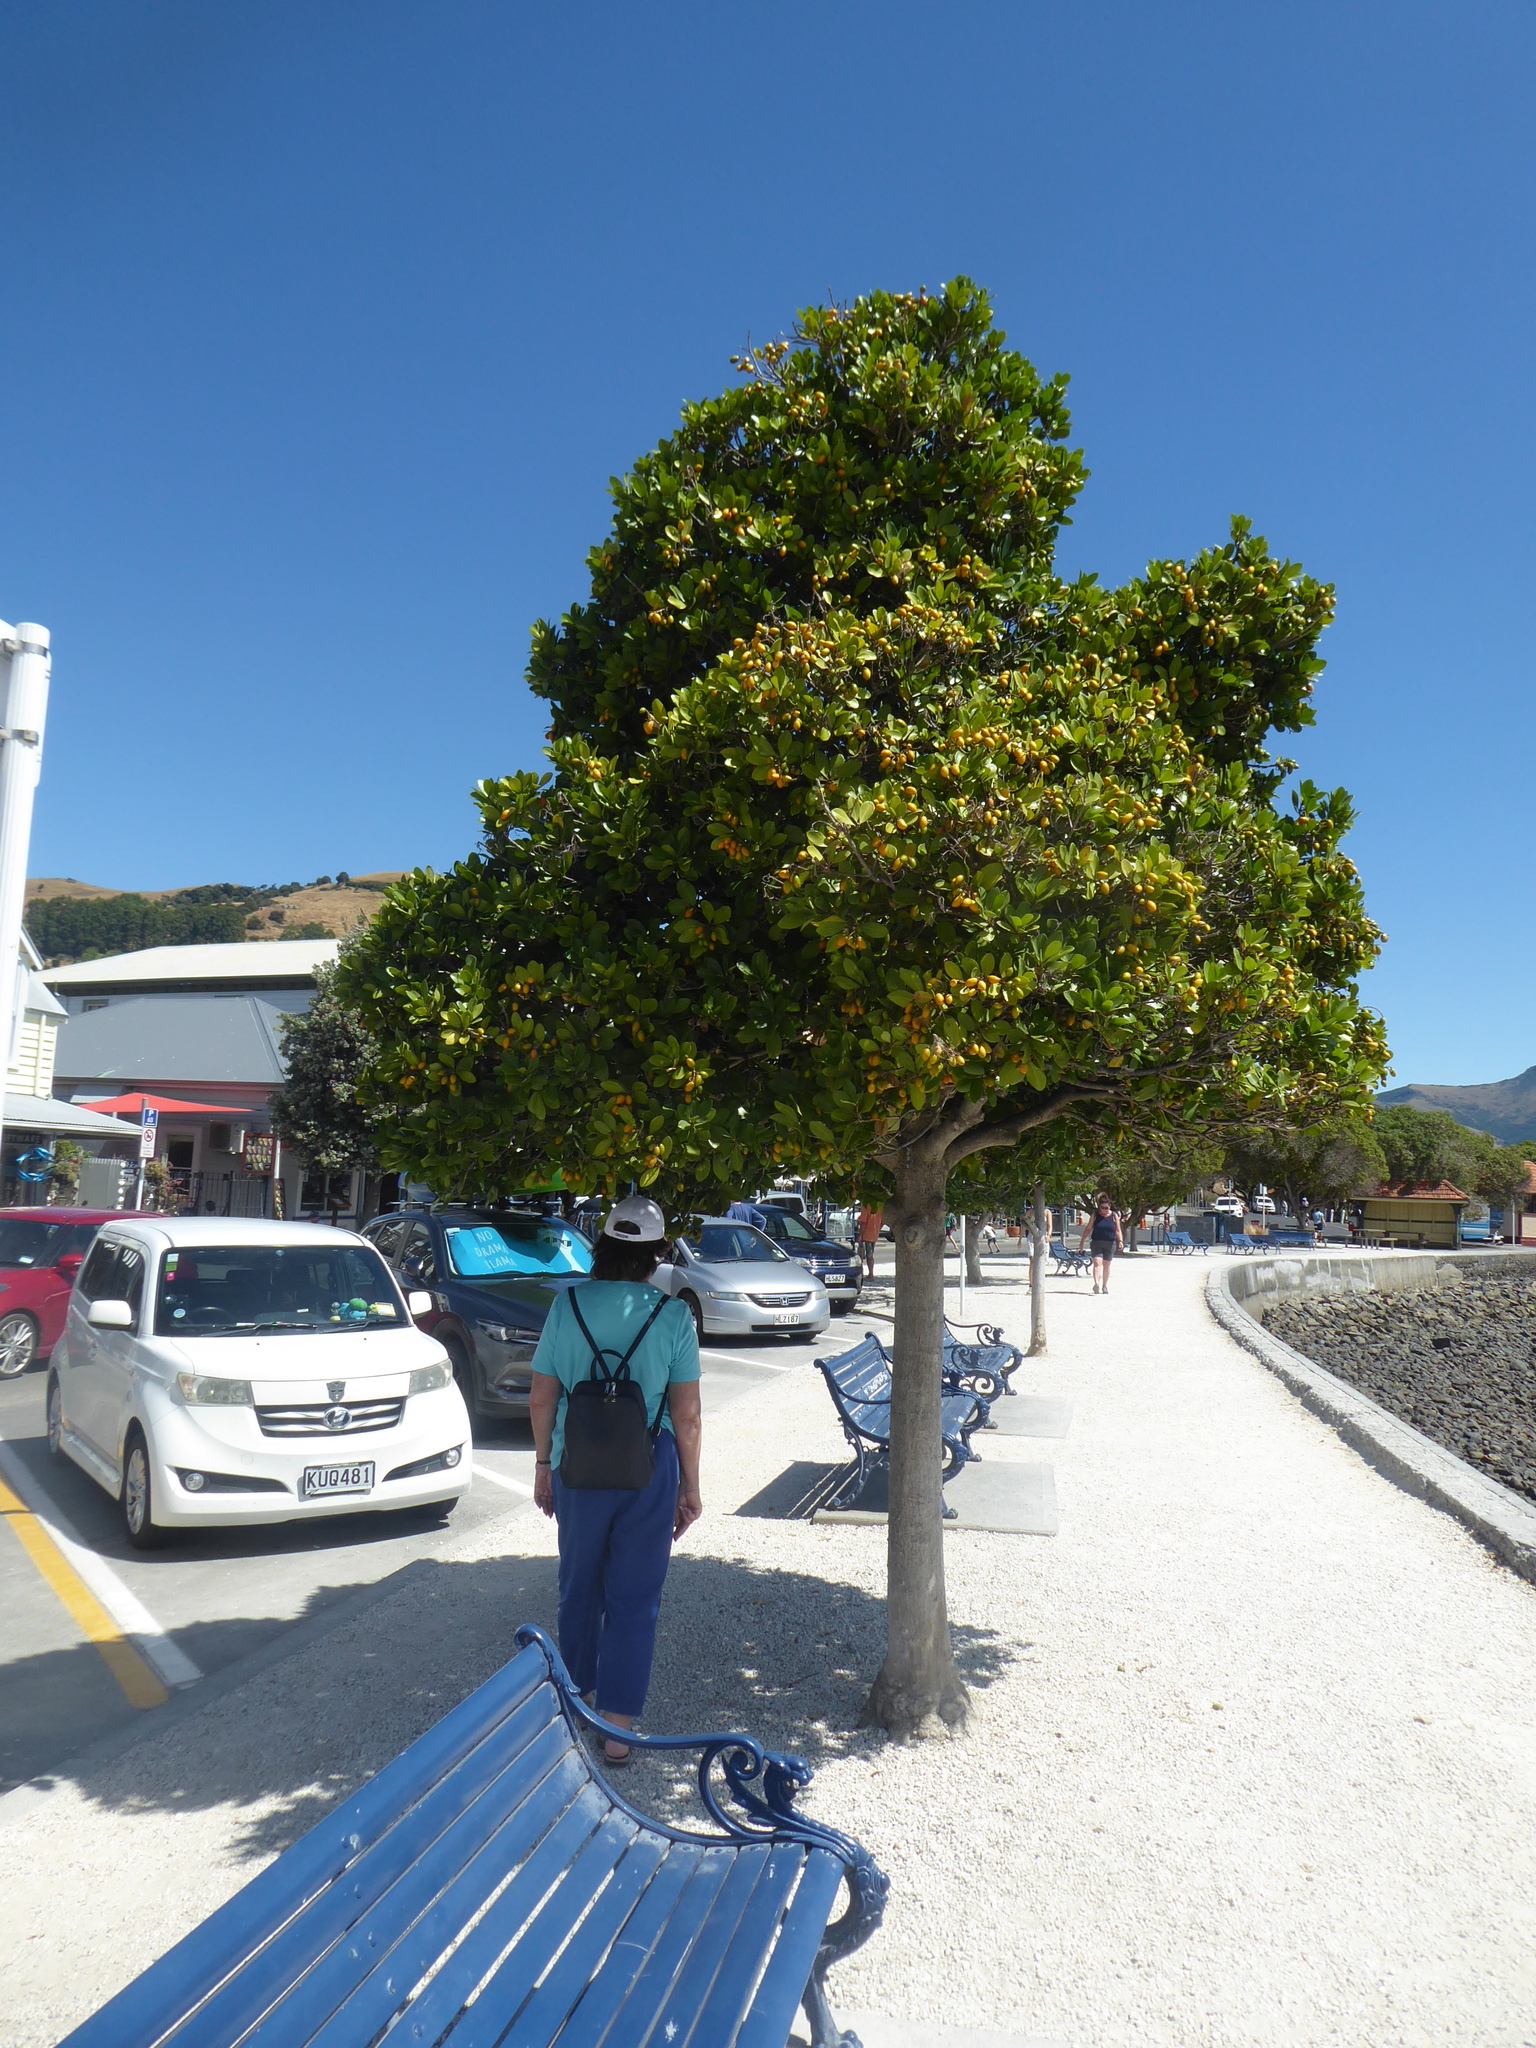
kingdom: Plantae
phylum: Tracheophyta
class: Magnoliopsida
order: Cucurbitales
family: Corynocarpaceae
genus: Corynocarpus
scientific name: Corynocarpus laevigatus
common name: New zealand laurel
